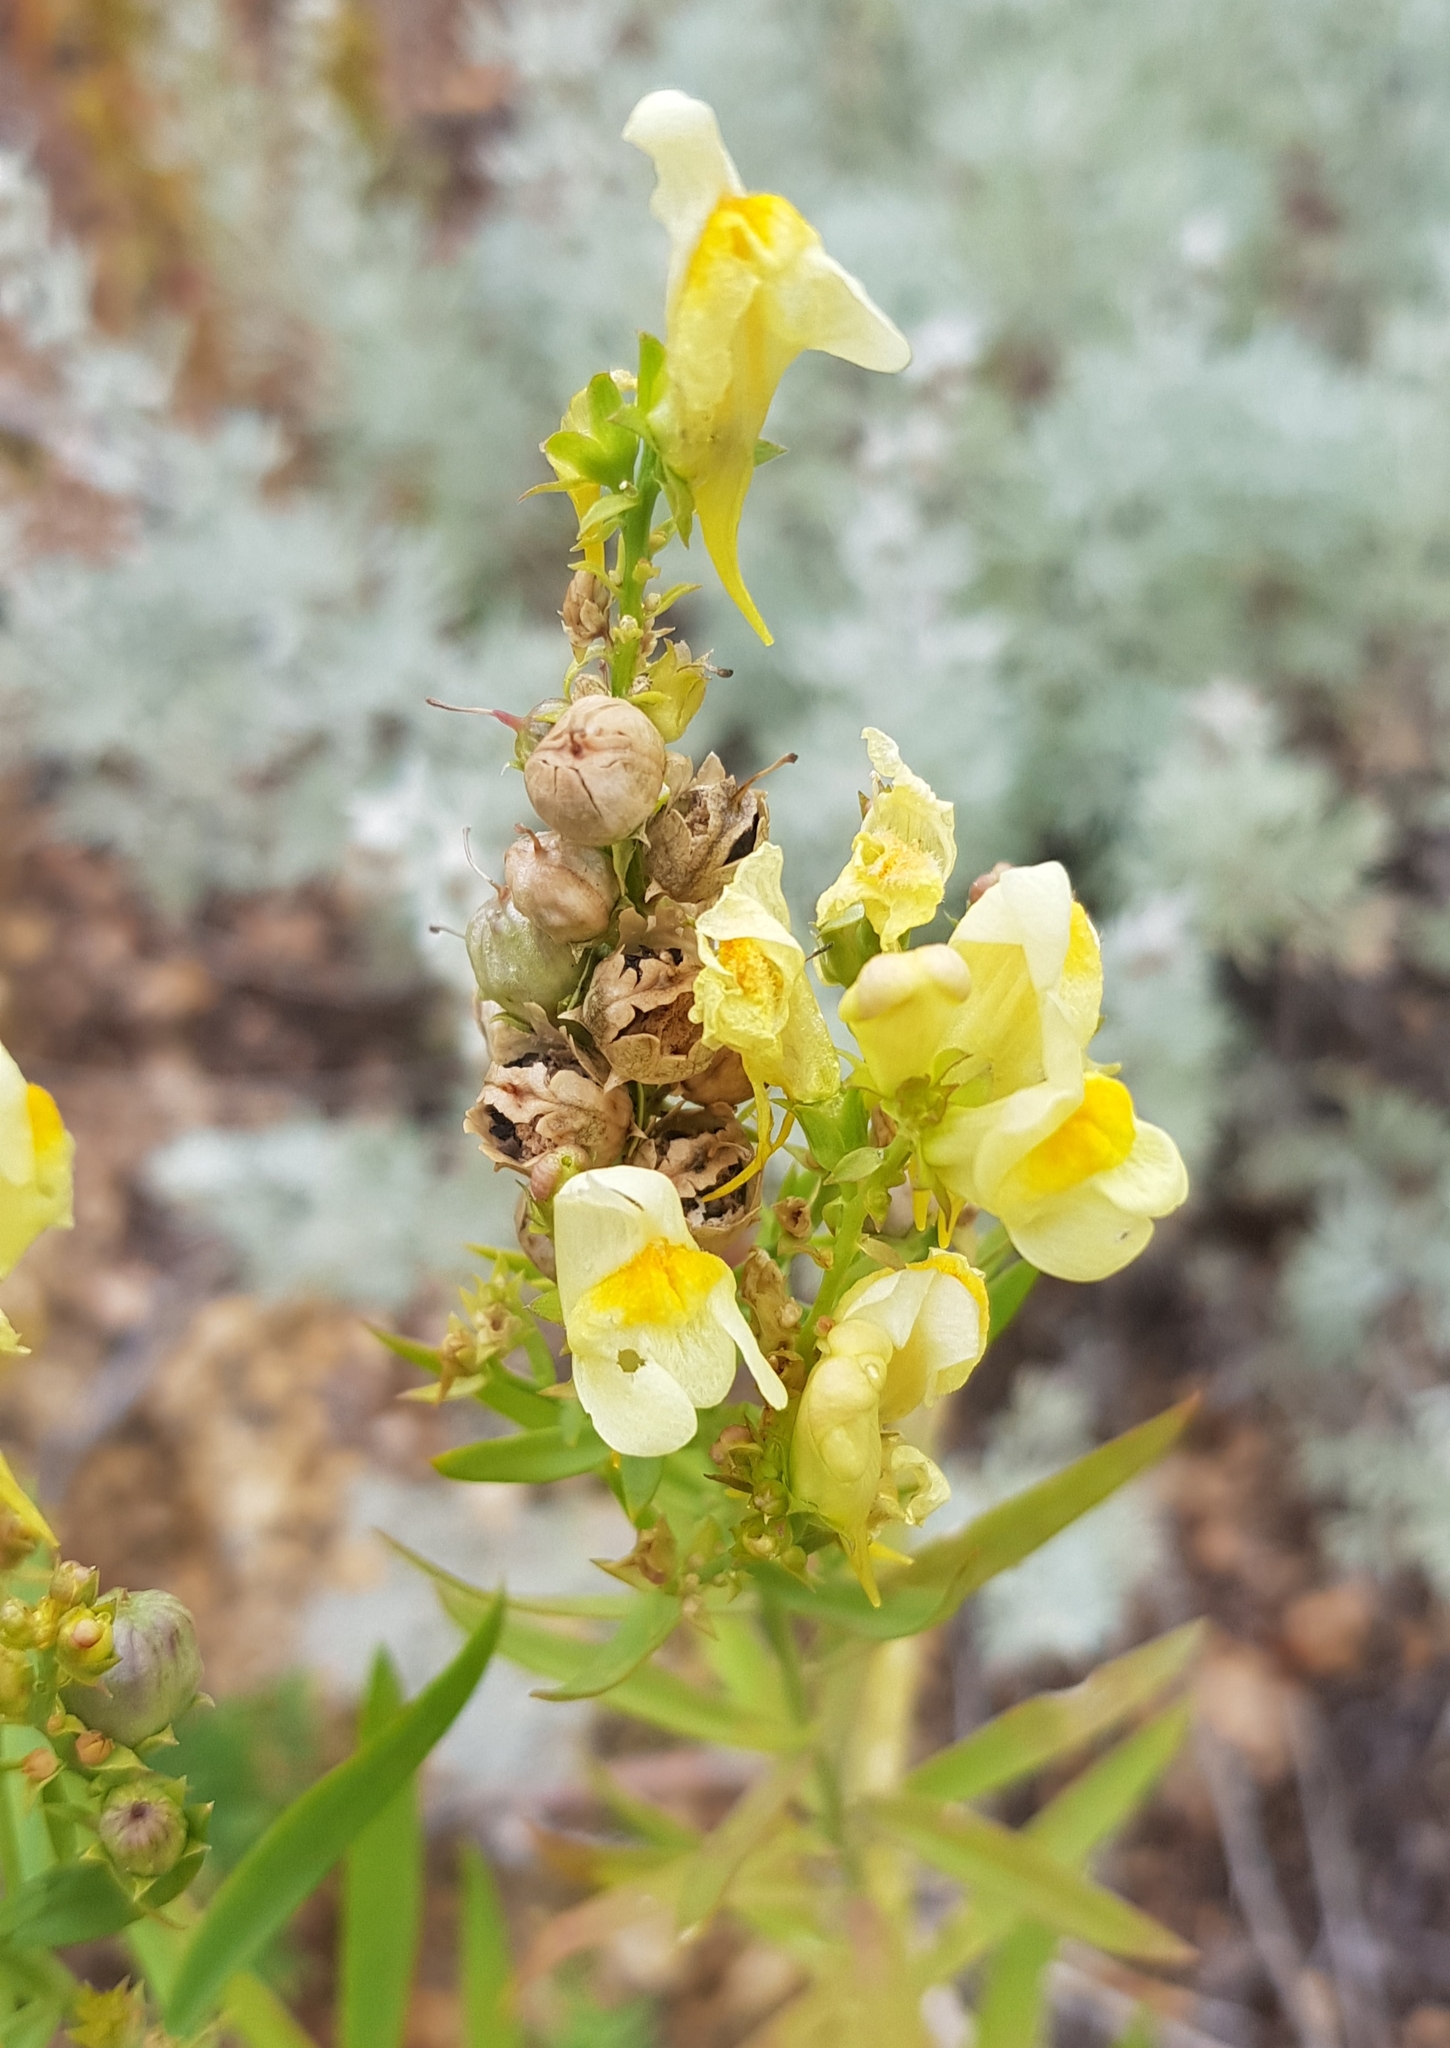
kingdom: Plantae
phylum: Tracheophyta
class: Magnoliopsida
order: Lamiales
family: Plantaginaceae
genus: Linaria
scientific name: Linaria acutiloba
